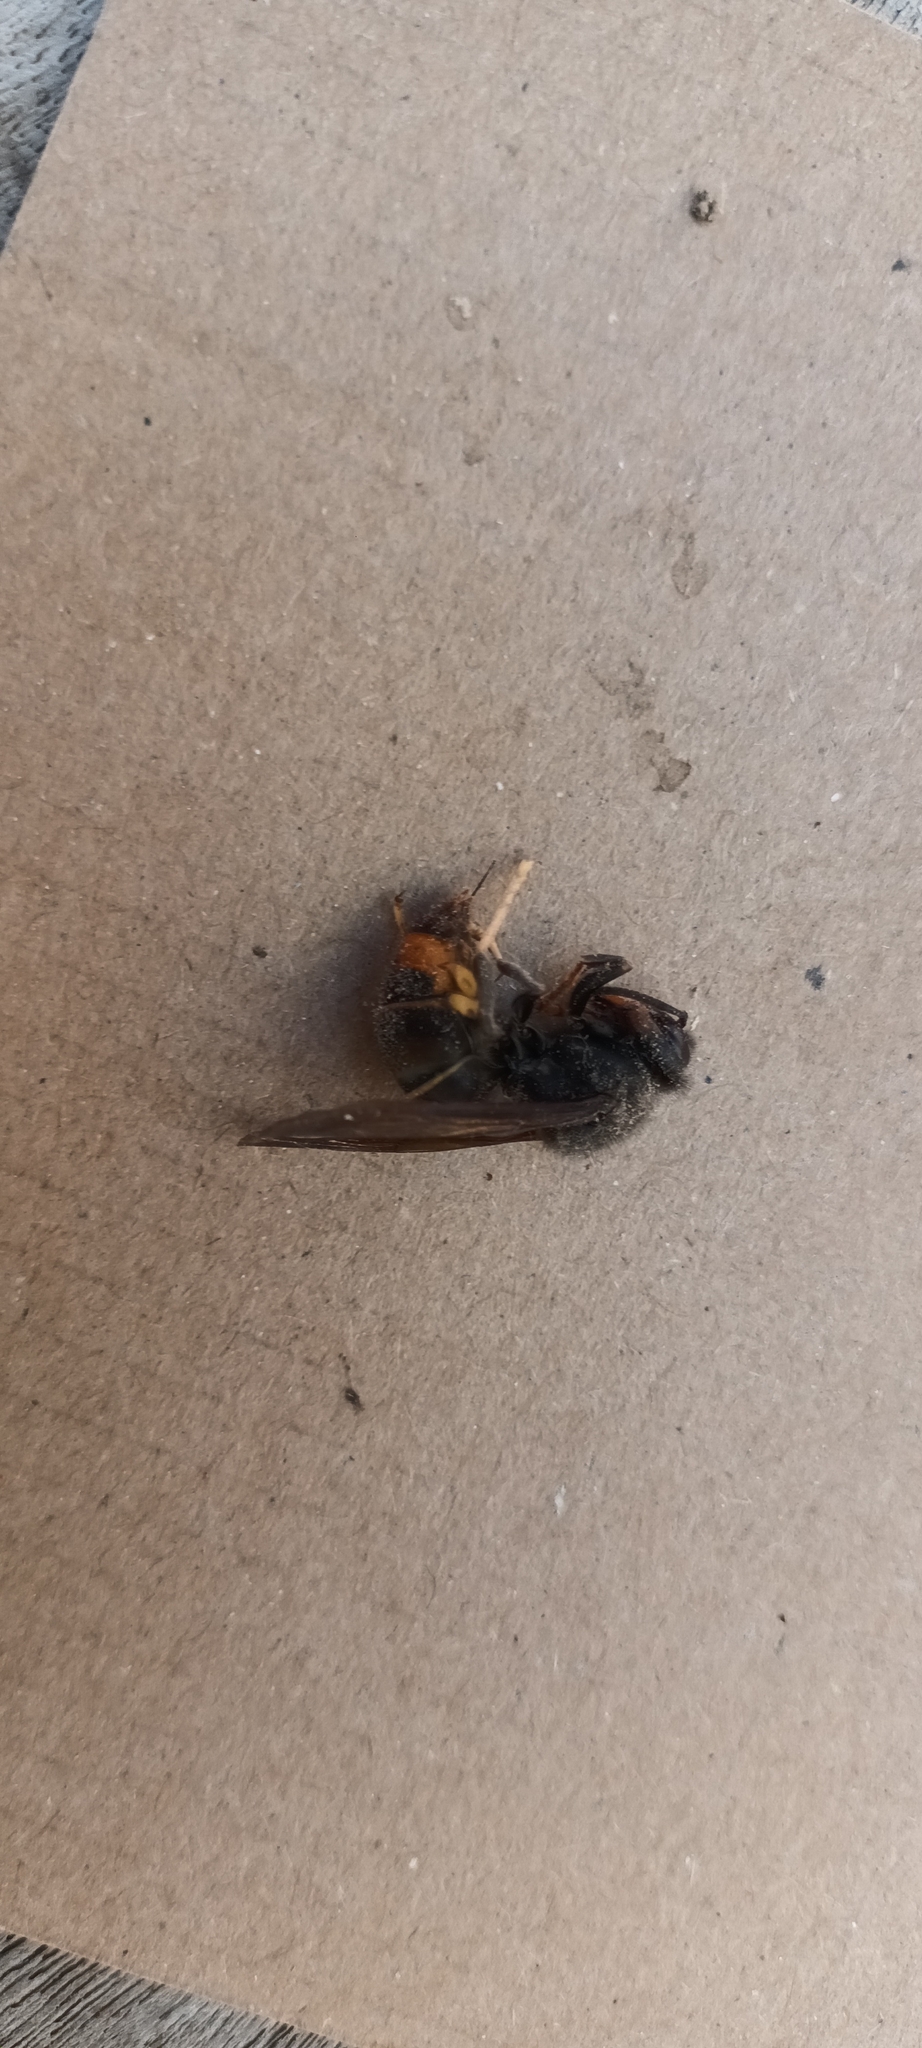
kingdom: Animalia
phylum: Arthropoda
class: Insecta
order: Hymenoptera
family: Vespidae
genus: Vespa
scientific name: Vespa velutina
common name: Asian hornet
